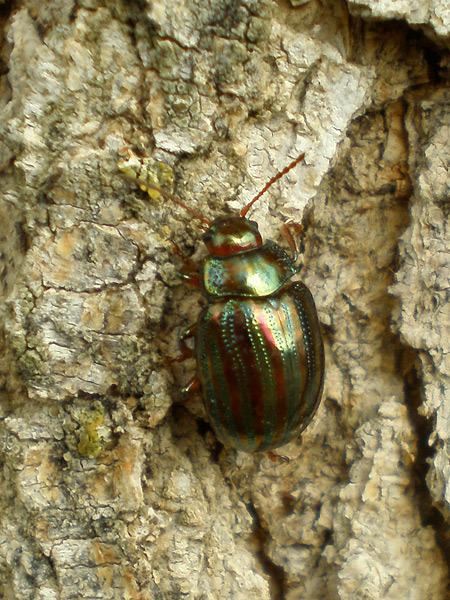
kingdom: Animalia
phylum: Arthropoda
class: Insecta
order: Coleoptera
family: Chrysomelidae
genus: Chrysolina
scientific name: Chrysolina americana
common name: Rosemary beetle
